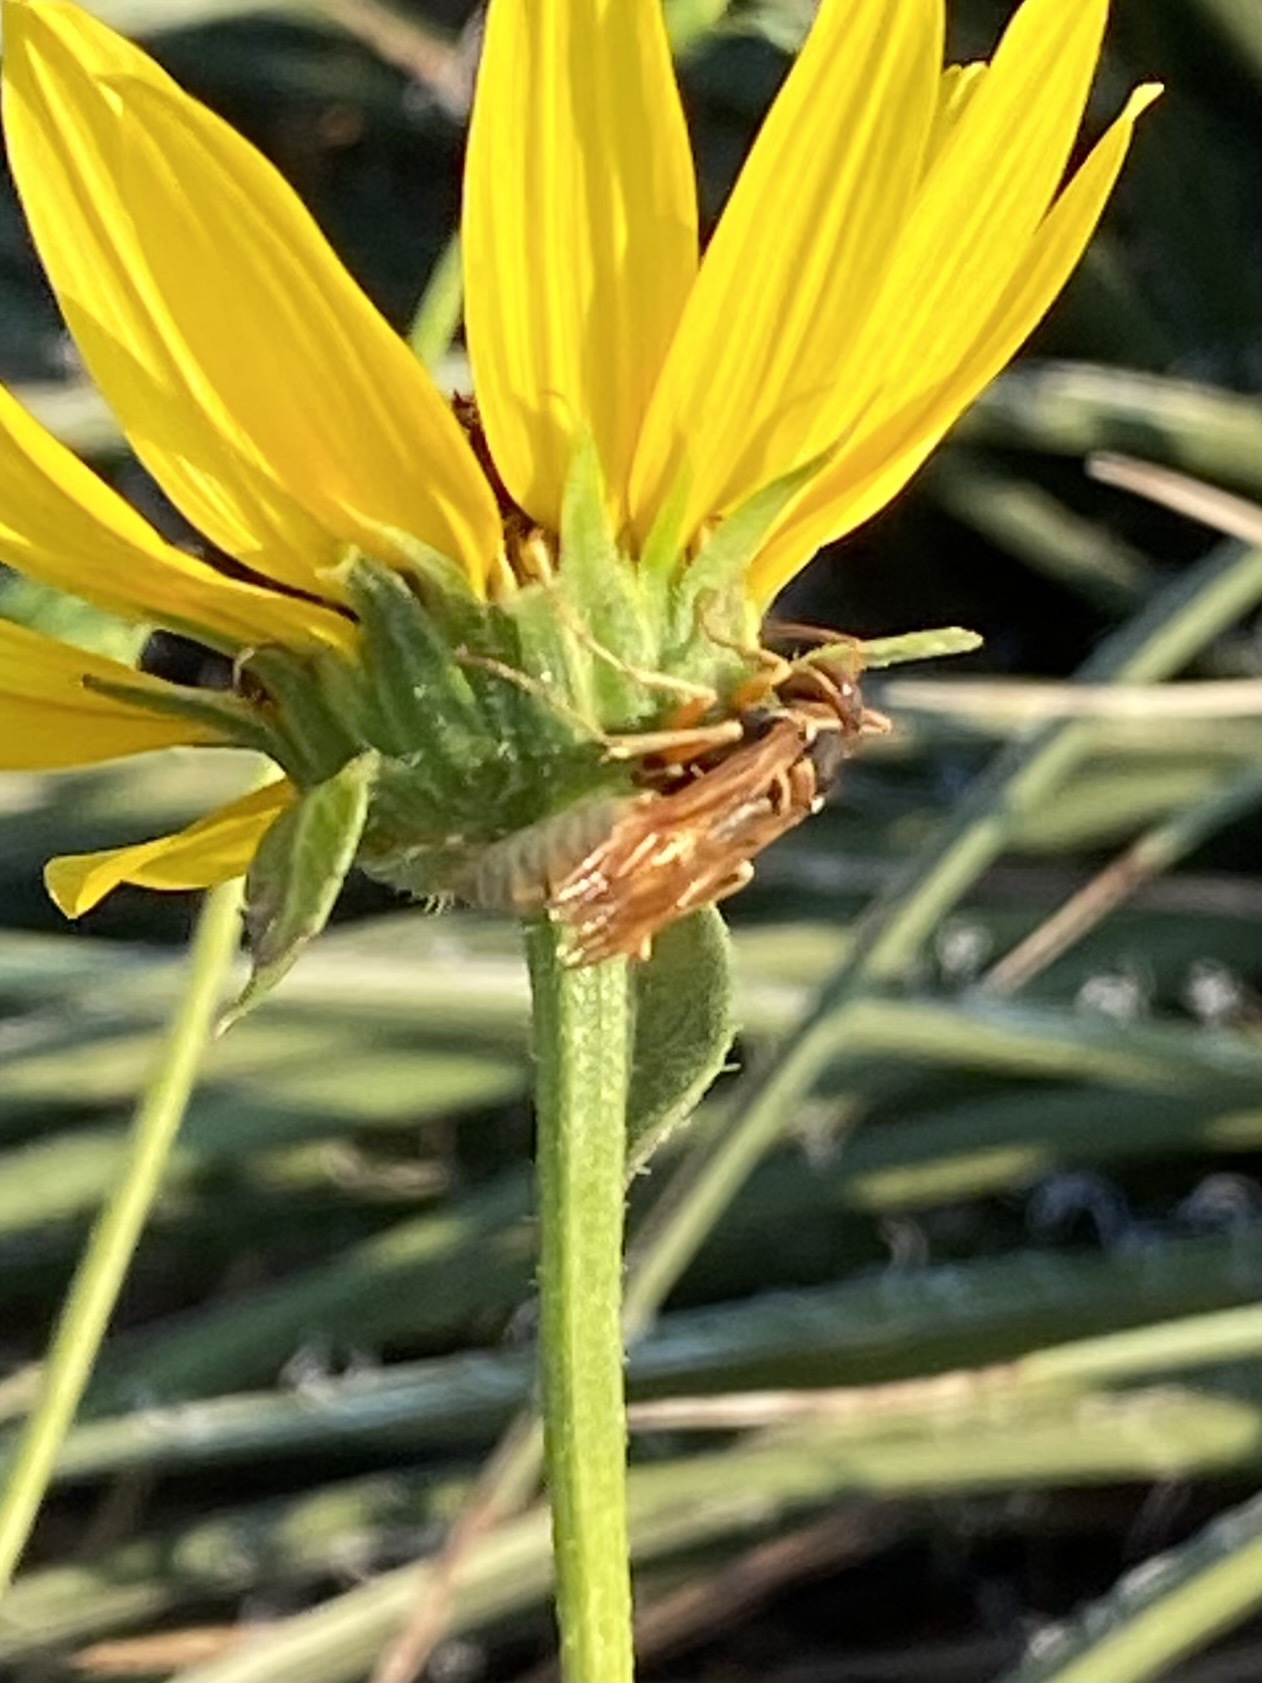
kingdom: Animalia
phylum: Arthropoda
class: Insecta
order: Hymenoptera
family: Eumenidae
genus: Polistes
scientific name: Polistes aurifer
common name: Paper wasp
